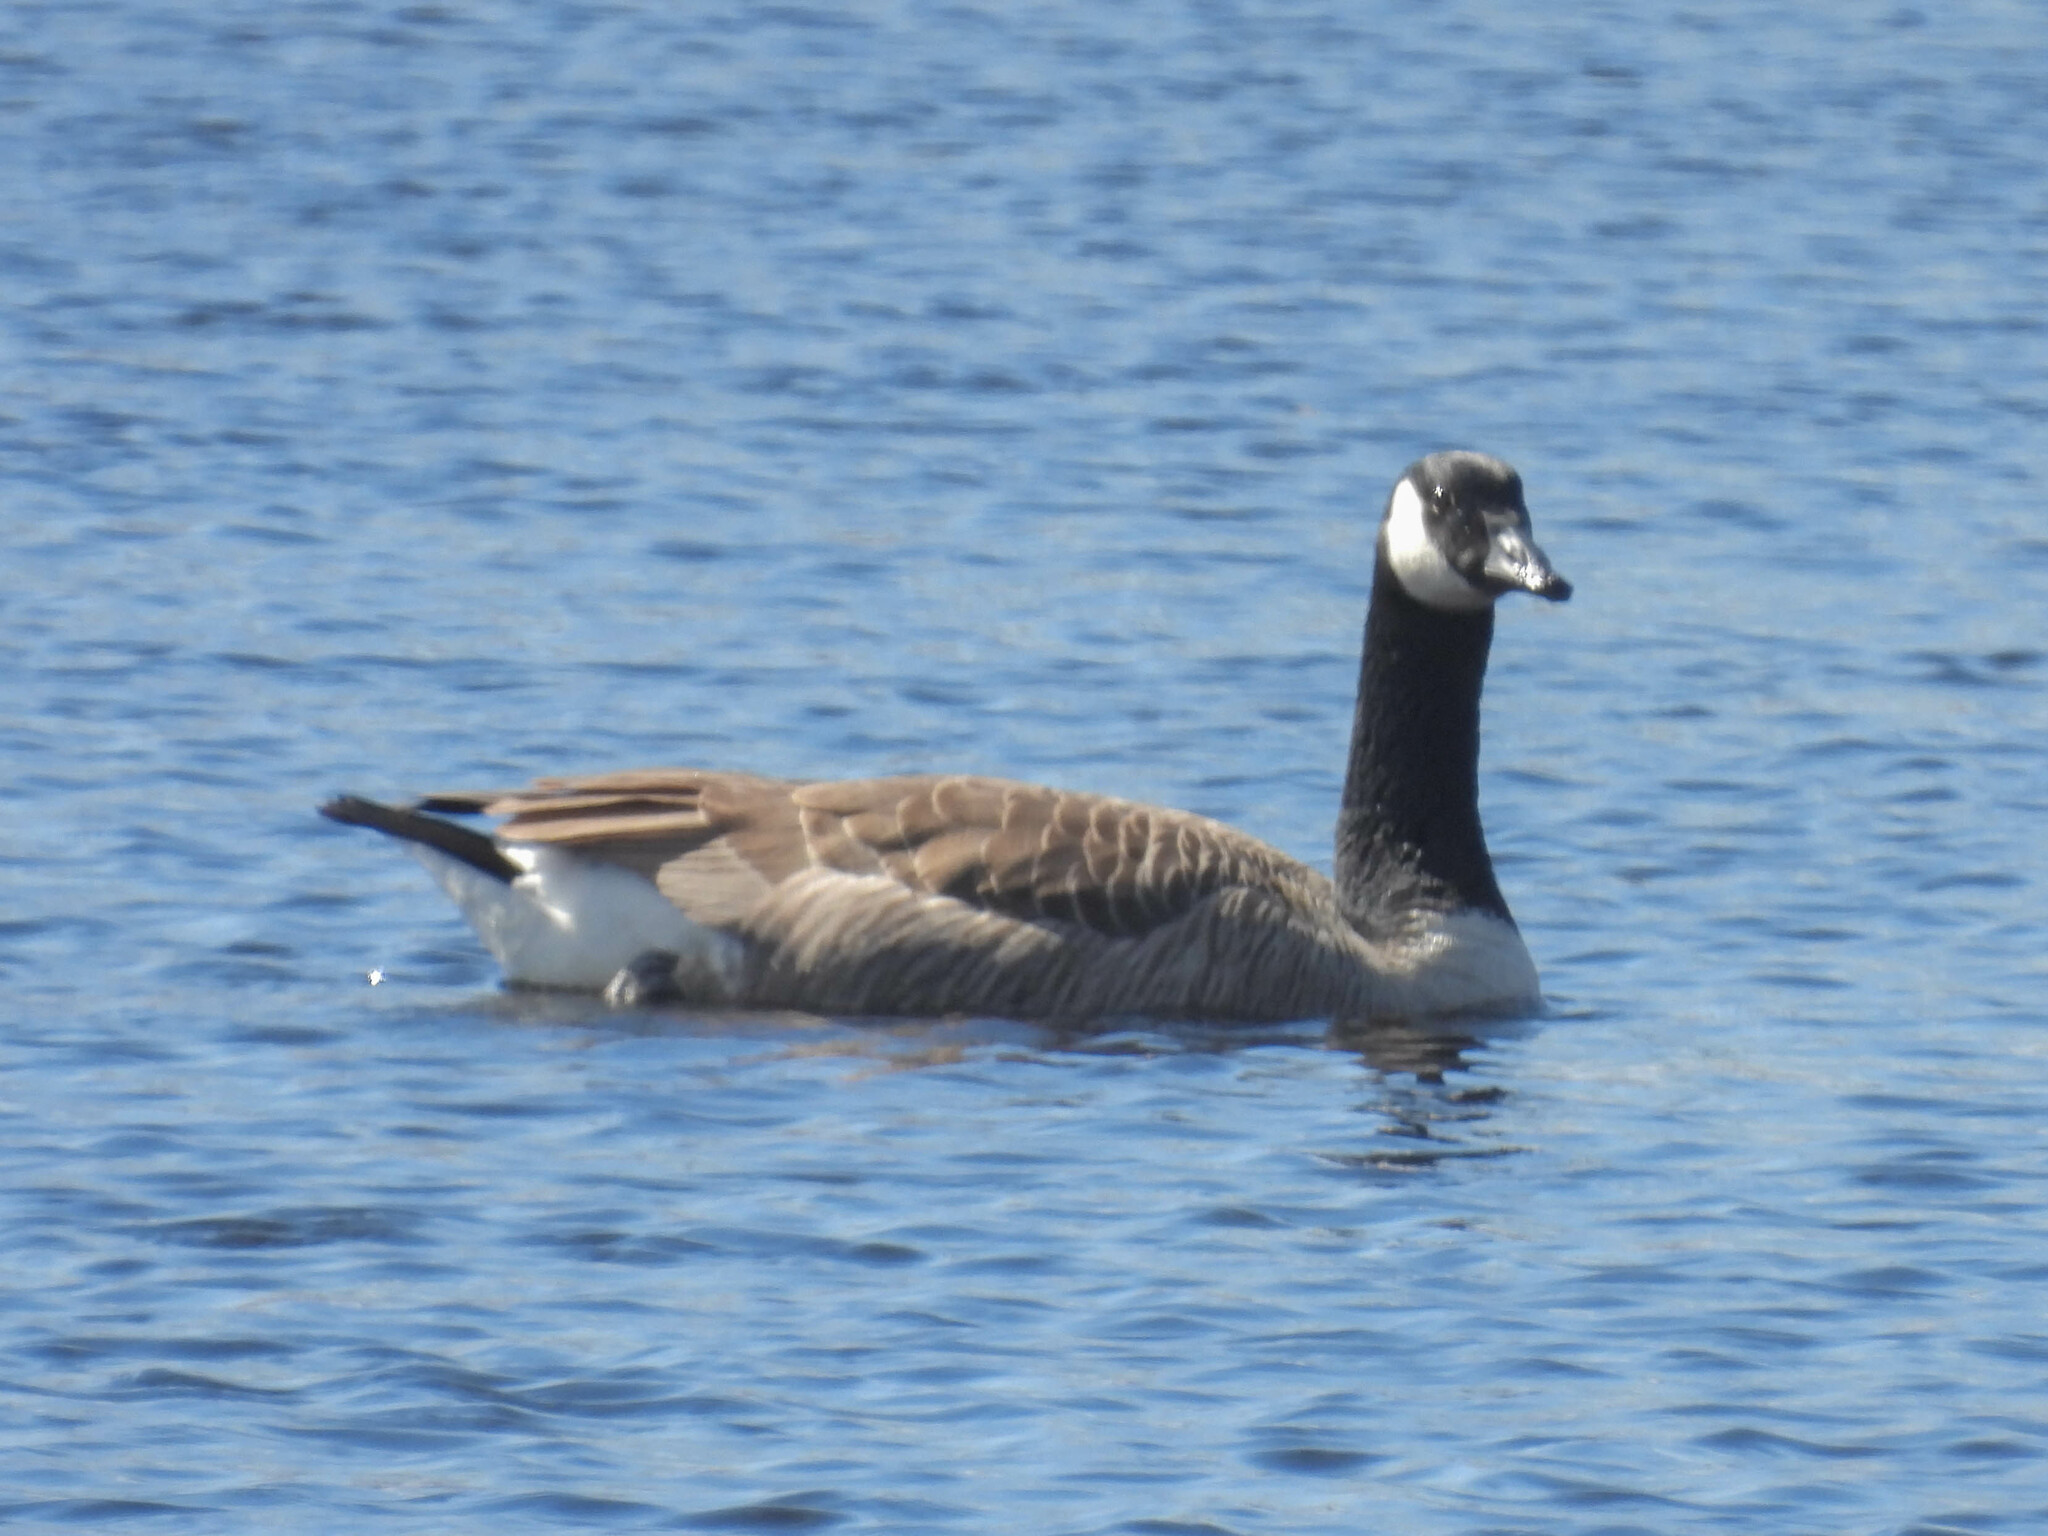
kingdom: Animalia
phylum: Chordata
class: Aves
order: Anseriformes
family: Anatidae
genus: Branta
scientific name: Branta canadensis
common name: Canada goose
